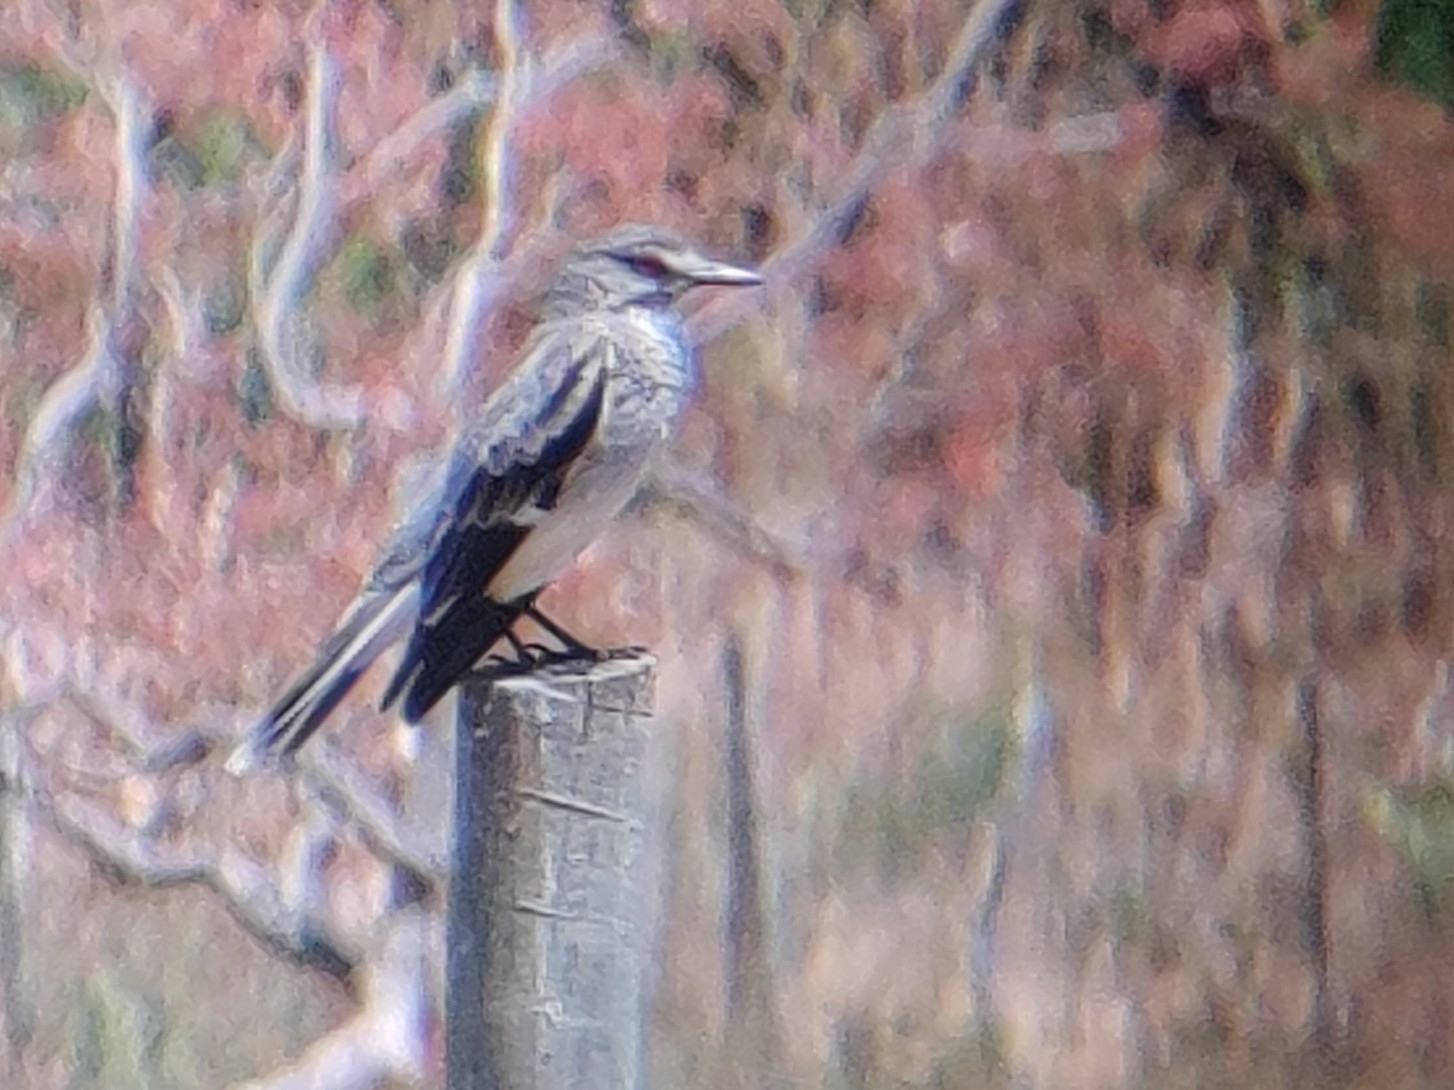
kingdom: Animalia
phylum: Chordata
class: Aves
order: Passeriformes
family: Tyrannidae
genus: Xolmis
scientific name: Xolmis cinereus
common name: Grey monjita
